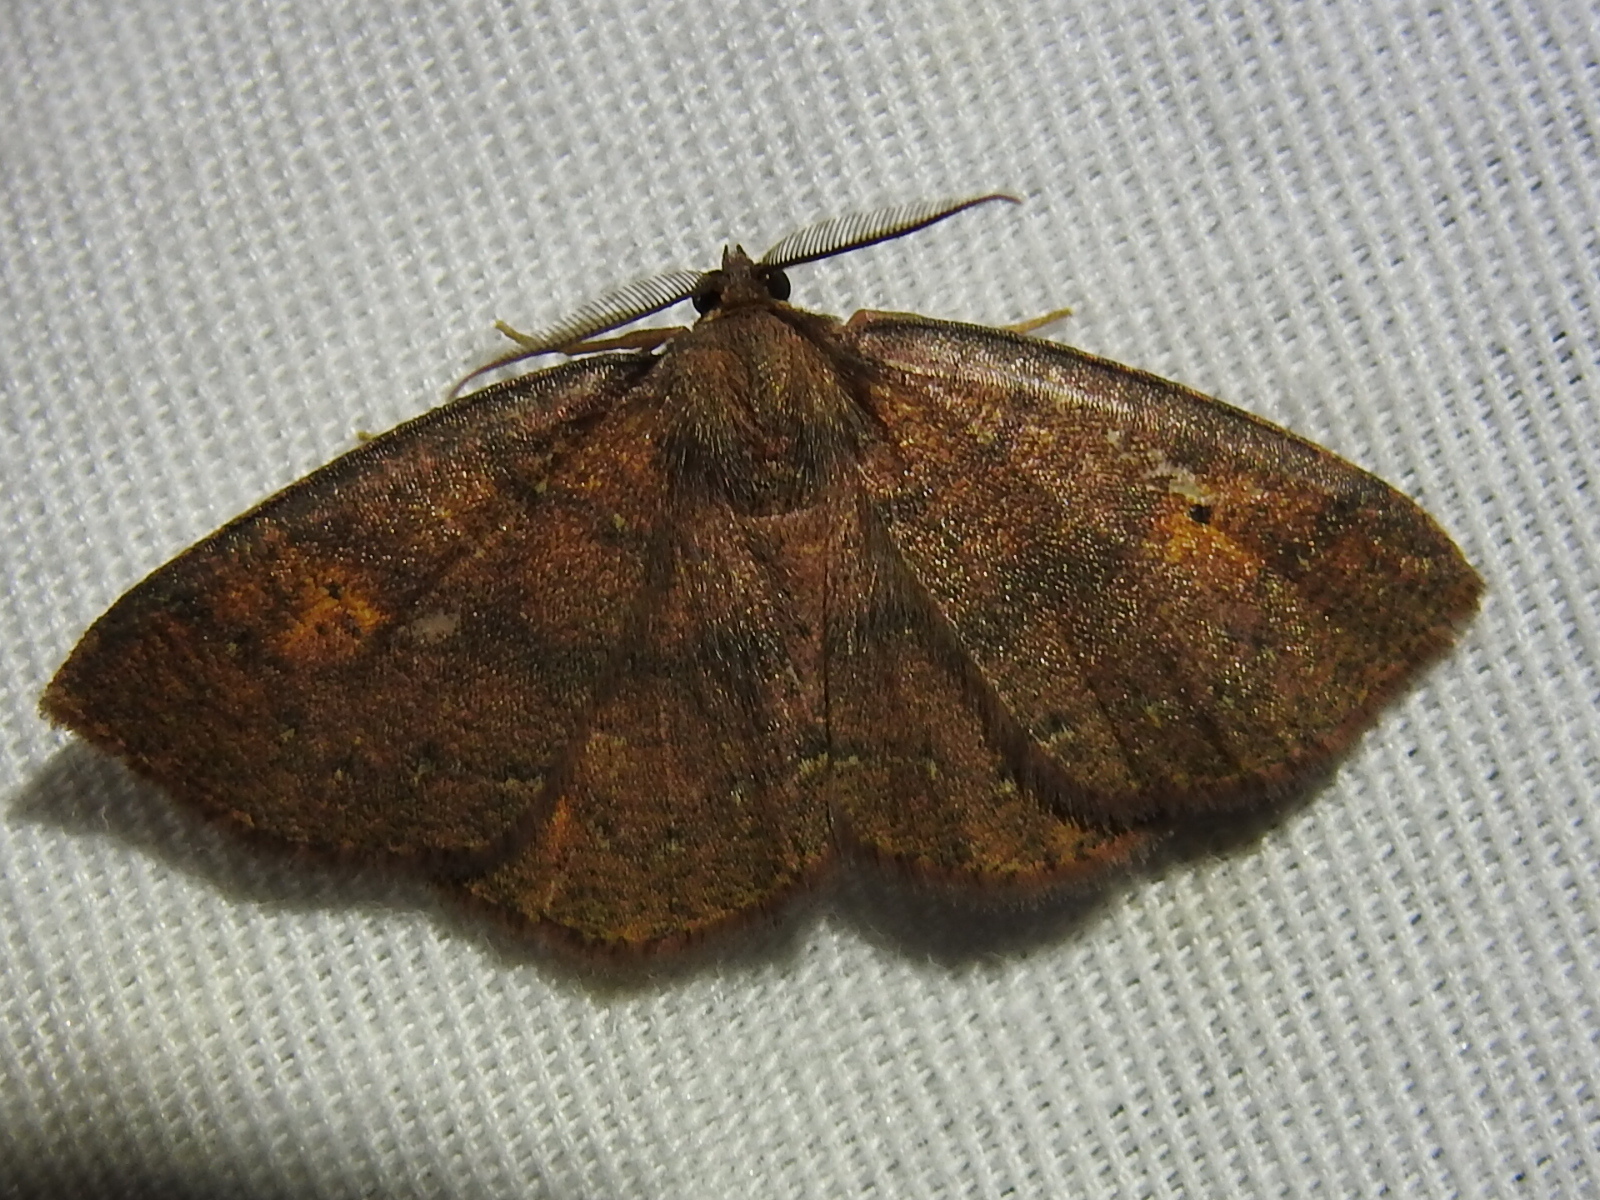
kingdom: Animalia
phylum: Arthropoda
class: Insecta
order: Lepidoptera
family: Geometridae
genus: Ilexia
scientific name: Ilexia intractata
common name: Black-dotted ruddy moth
